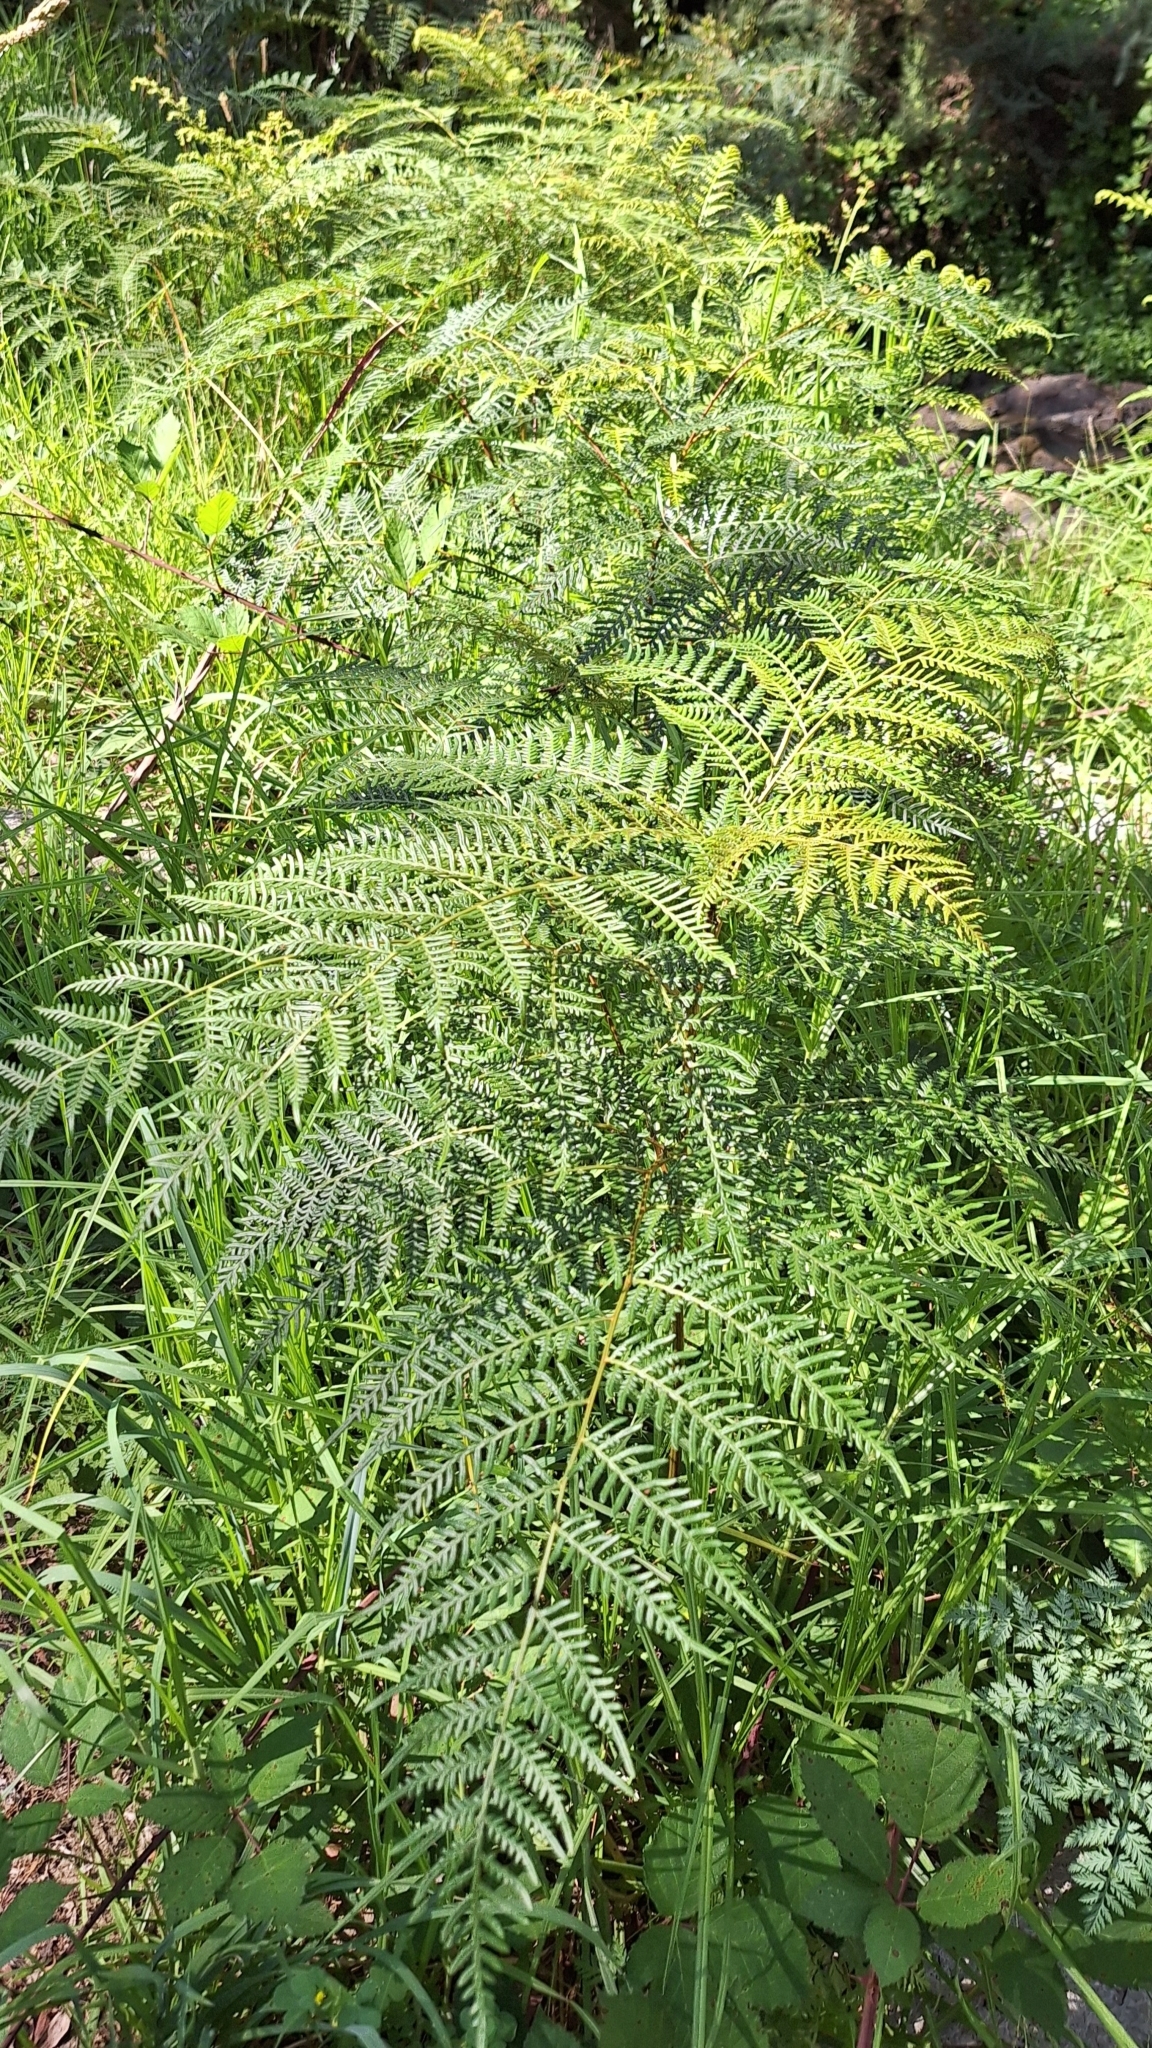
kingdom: Plantae
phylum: Tracheophyta
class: Polypodiopsida
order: Polypodiales
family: Dennstaedtiaceae
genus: Pteridium
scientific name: Pteridium esculentum
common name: Bracken fern
